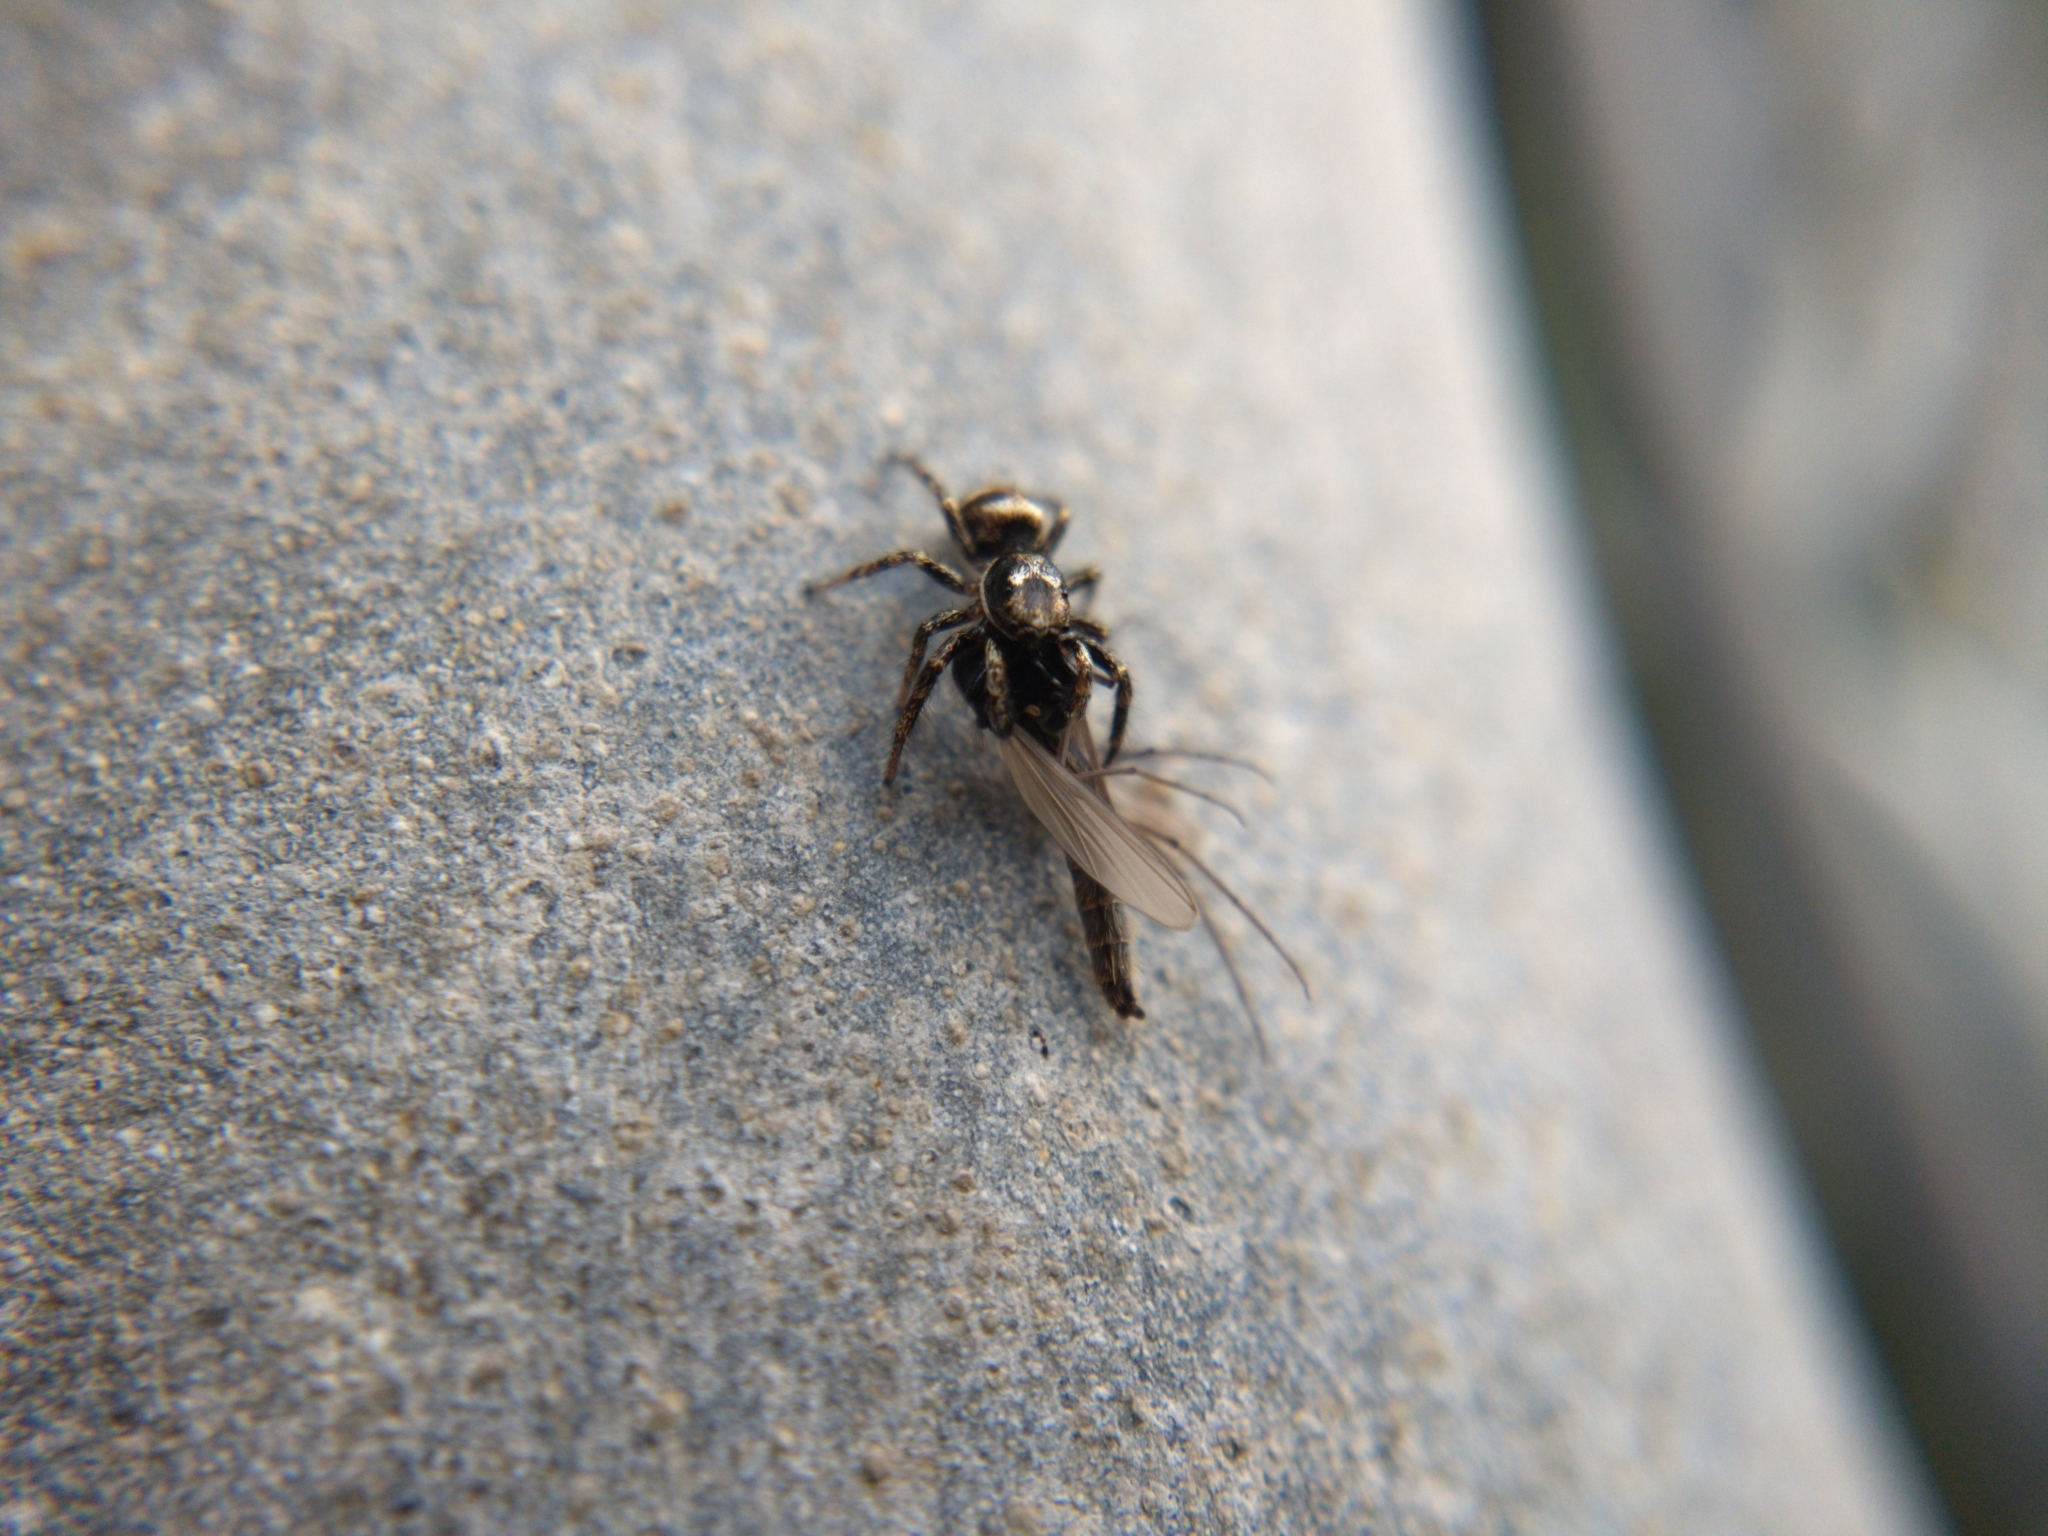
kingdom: Animalia
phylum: Arthropoda
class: Arachnida
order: Araneae
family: Salticidae
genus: Salticus
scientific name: Salticus scenicus
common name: Zebra jumper
